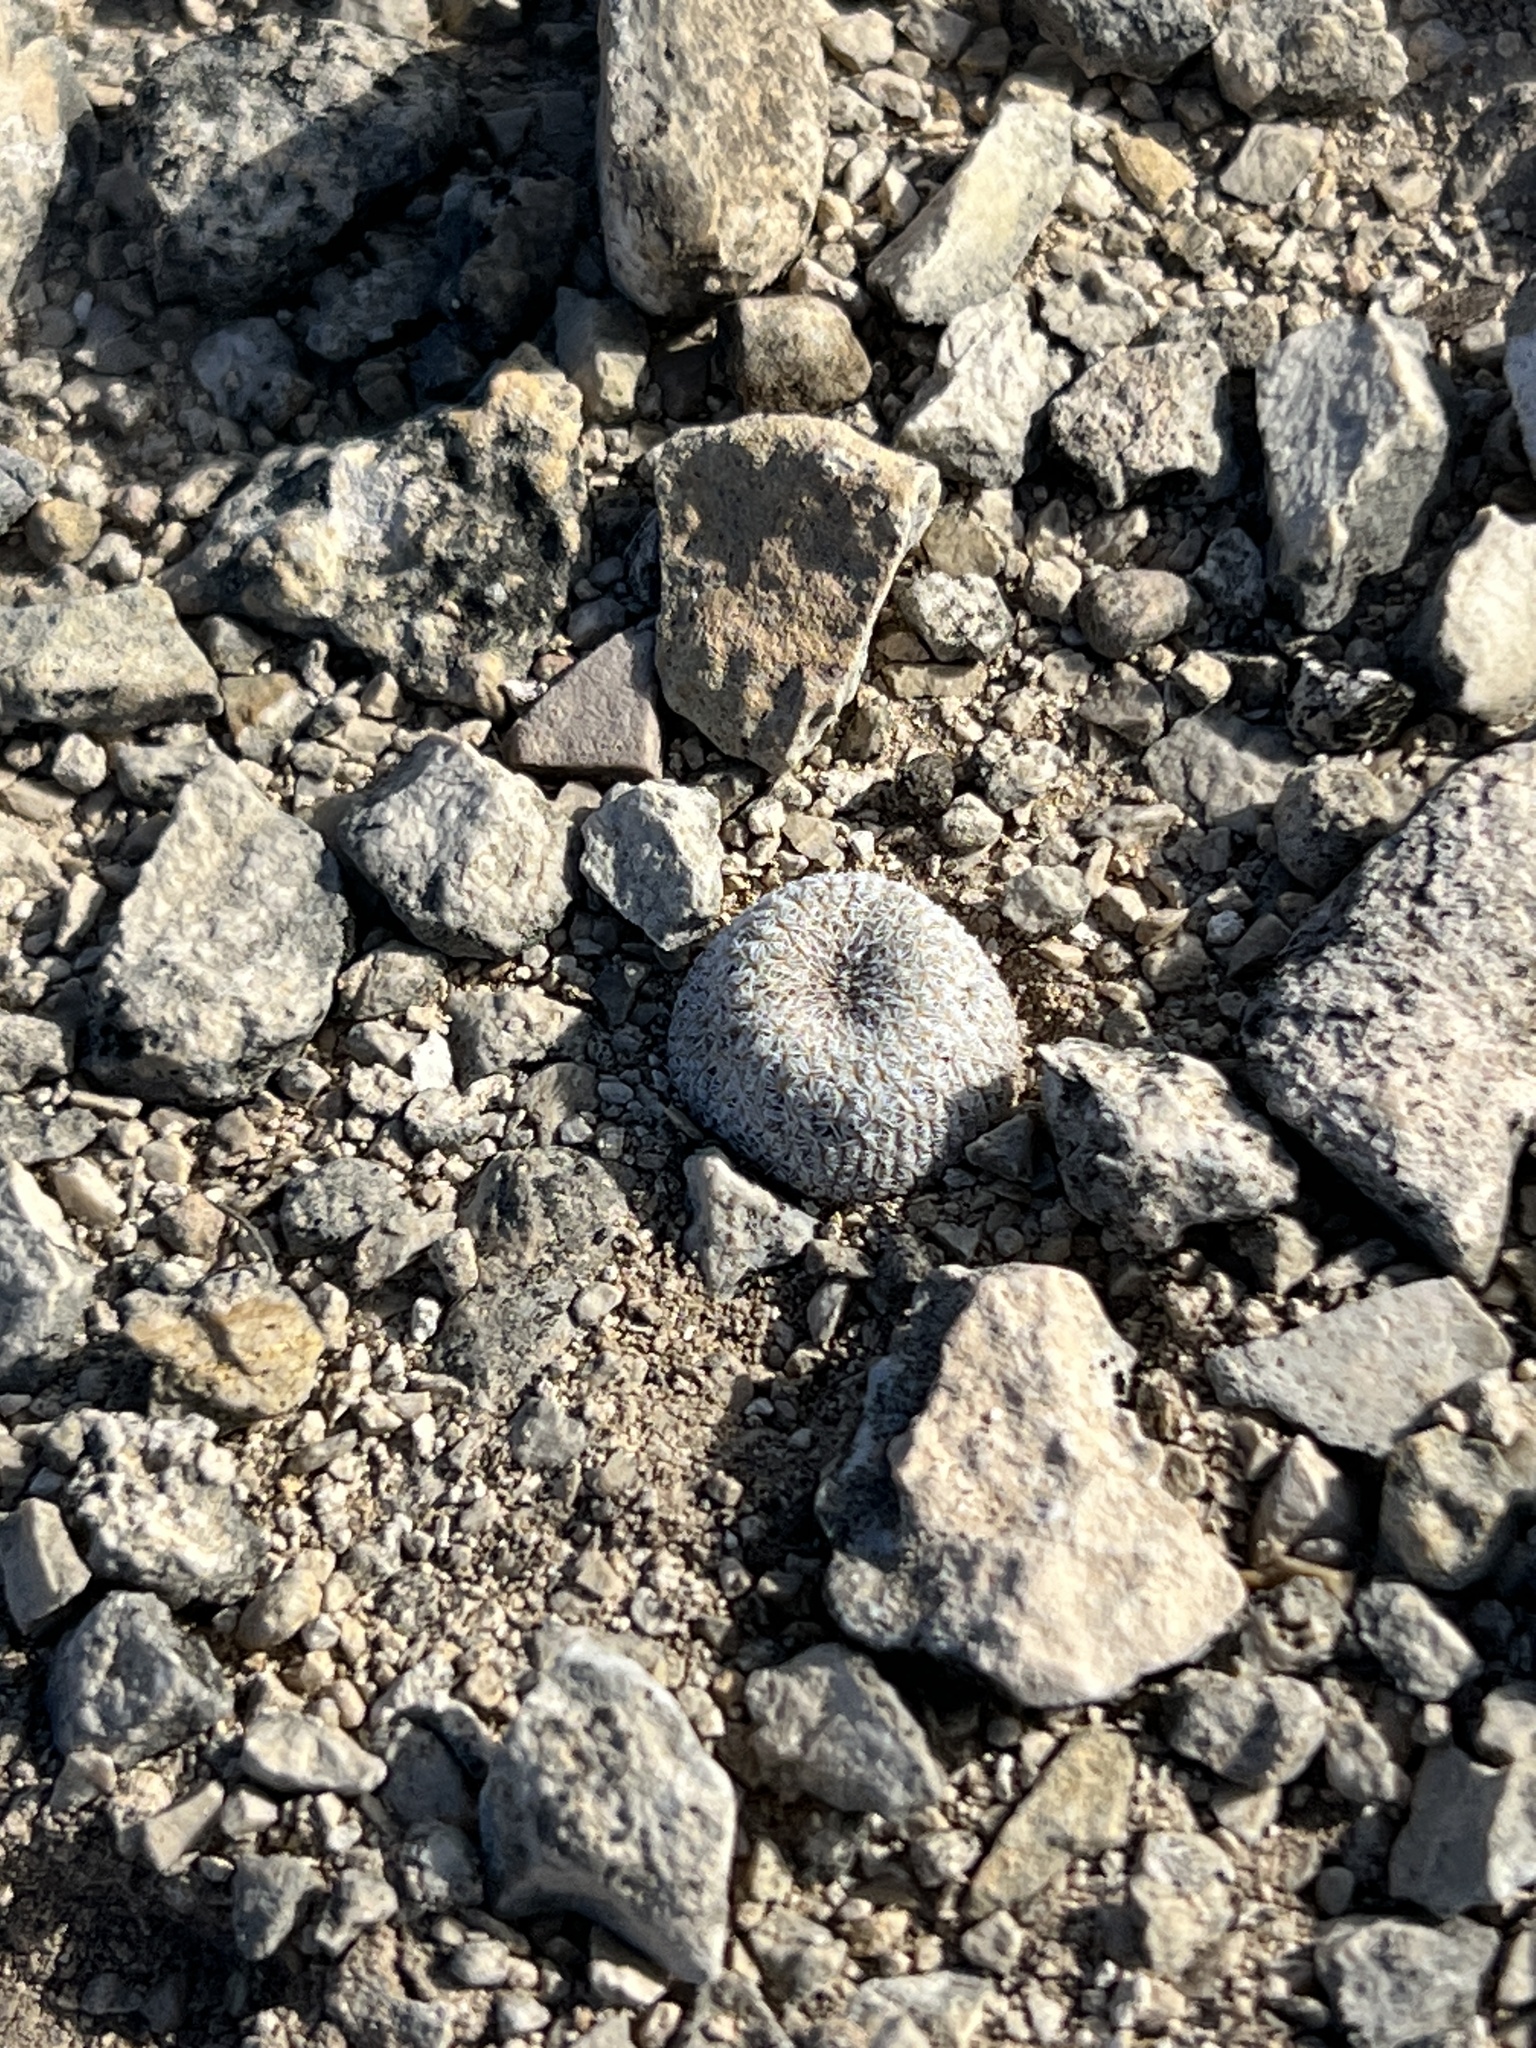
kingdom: Plantae
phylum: Tracheophyta
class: Magnoliopsida
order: Caryophyllales
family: Cactaceae
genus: Epithelantha
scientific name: Epithelantha micromeris
